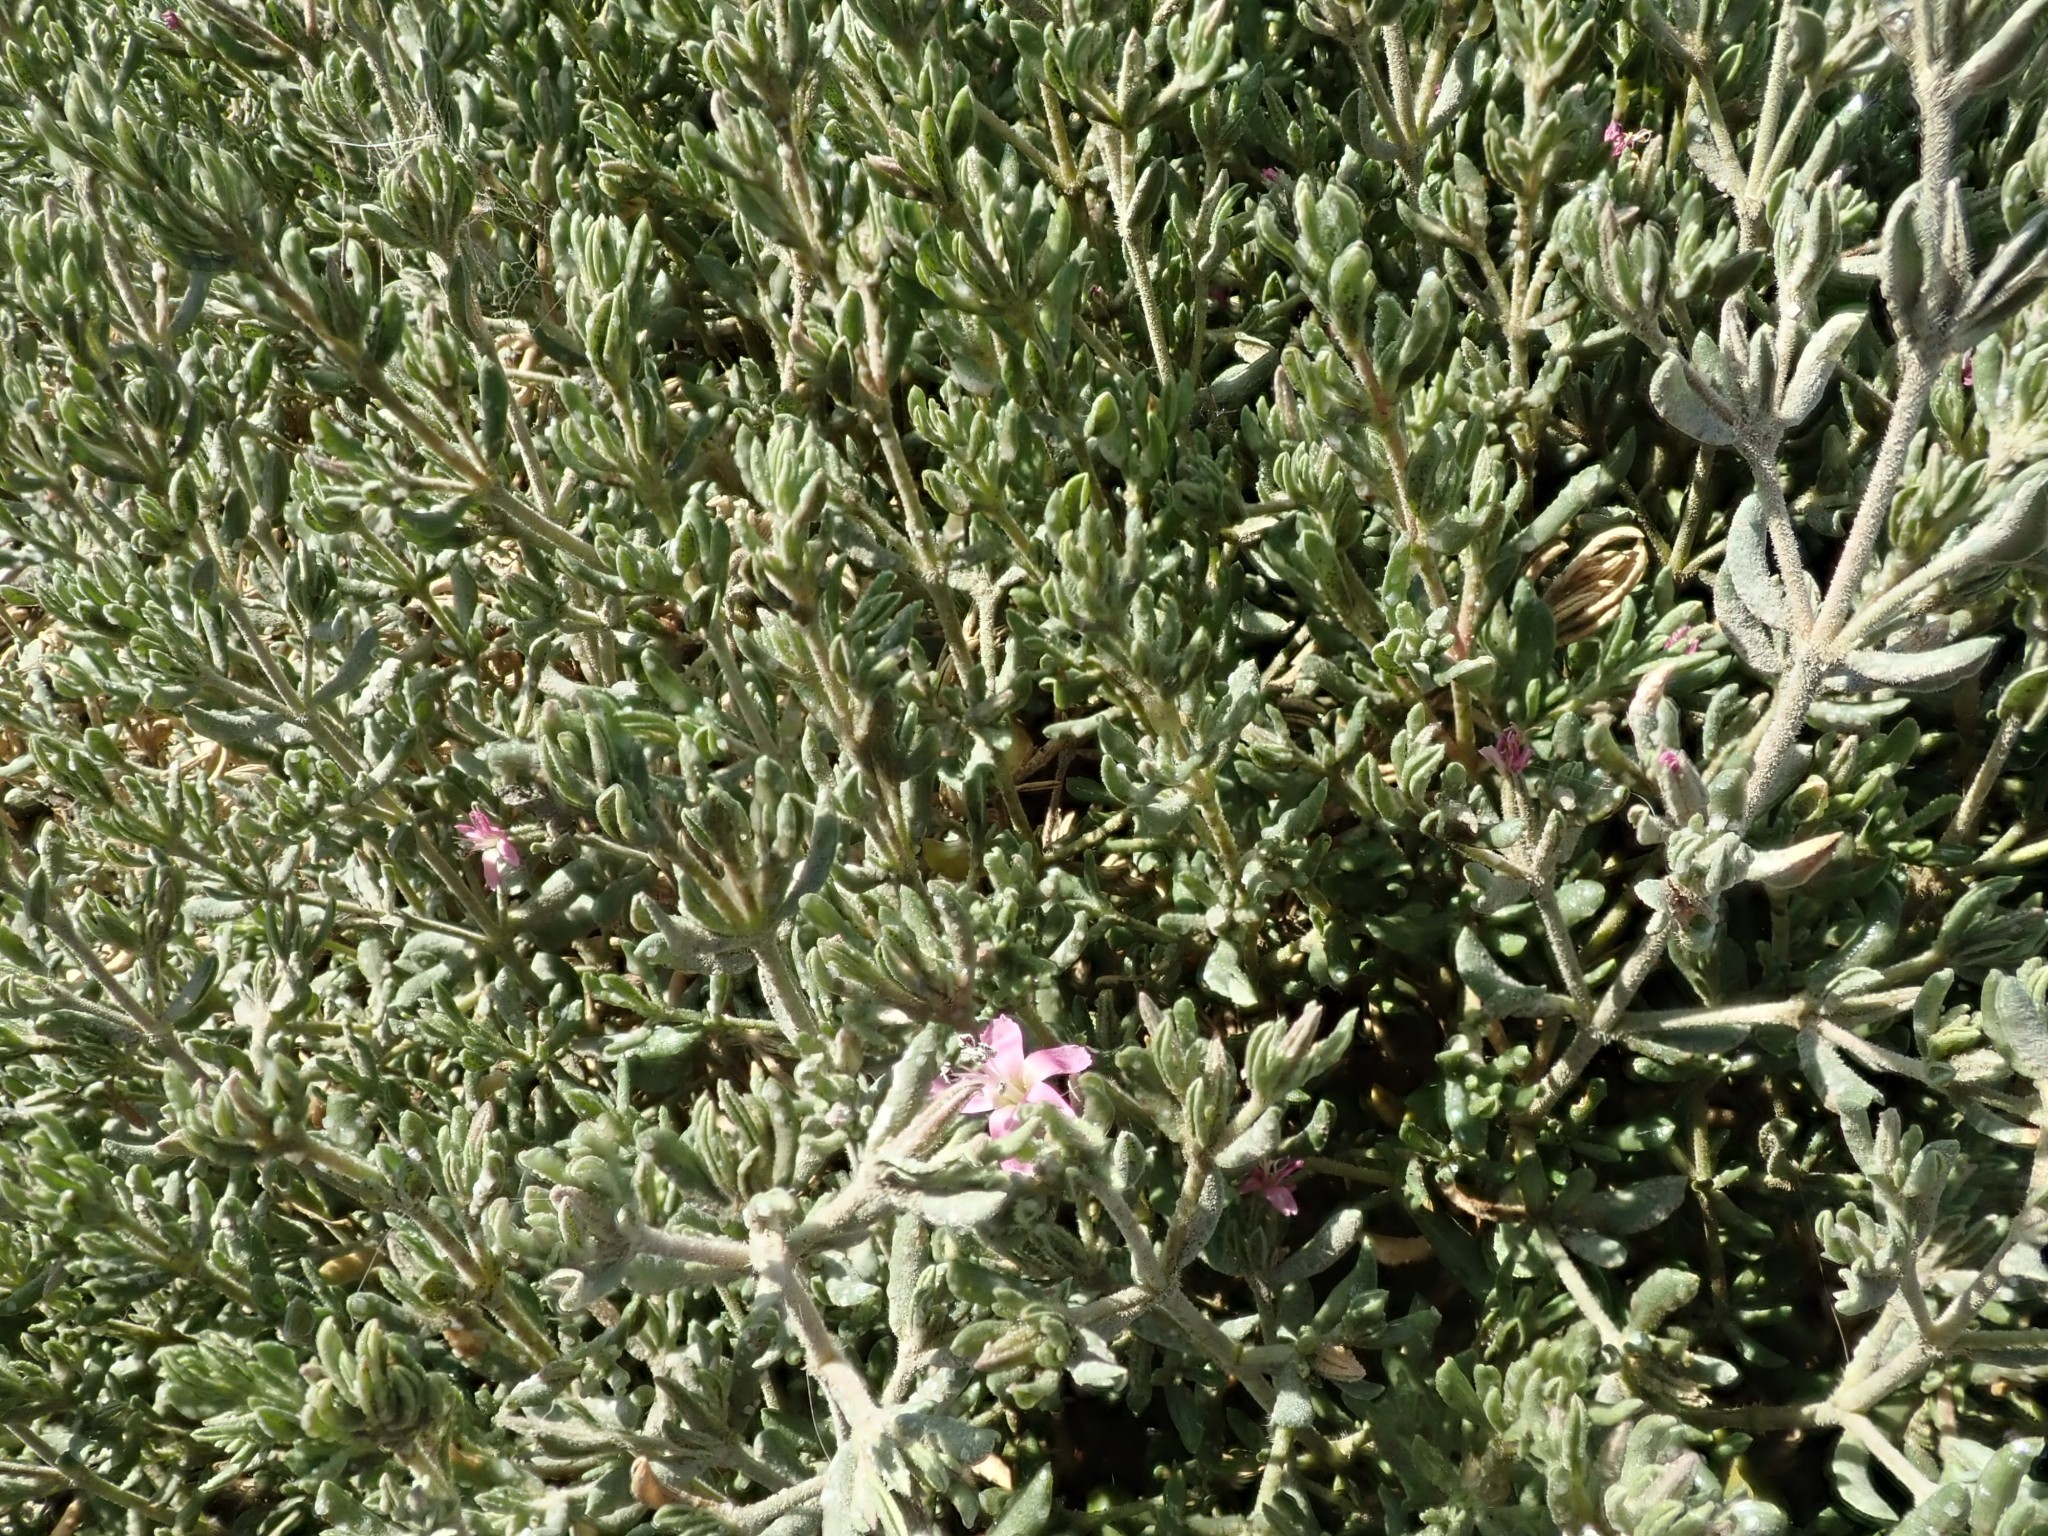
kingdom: Plantae
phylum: Tracheophyta
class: Magnoliopsida
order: Caryophyllales
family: Frankeniaceae
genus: Frankenia
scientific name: Frankenia salina
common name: Alkali seaheath
